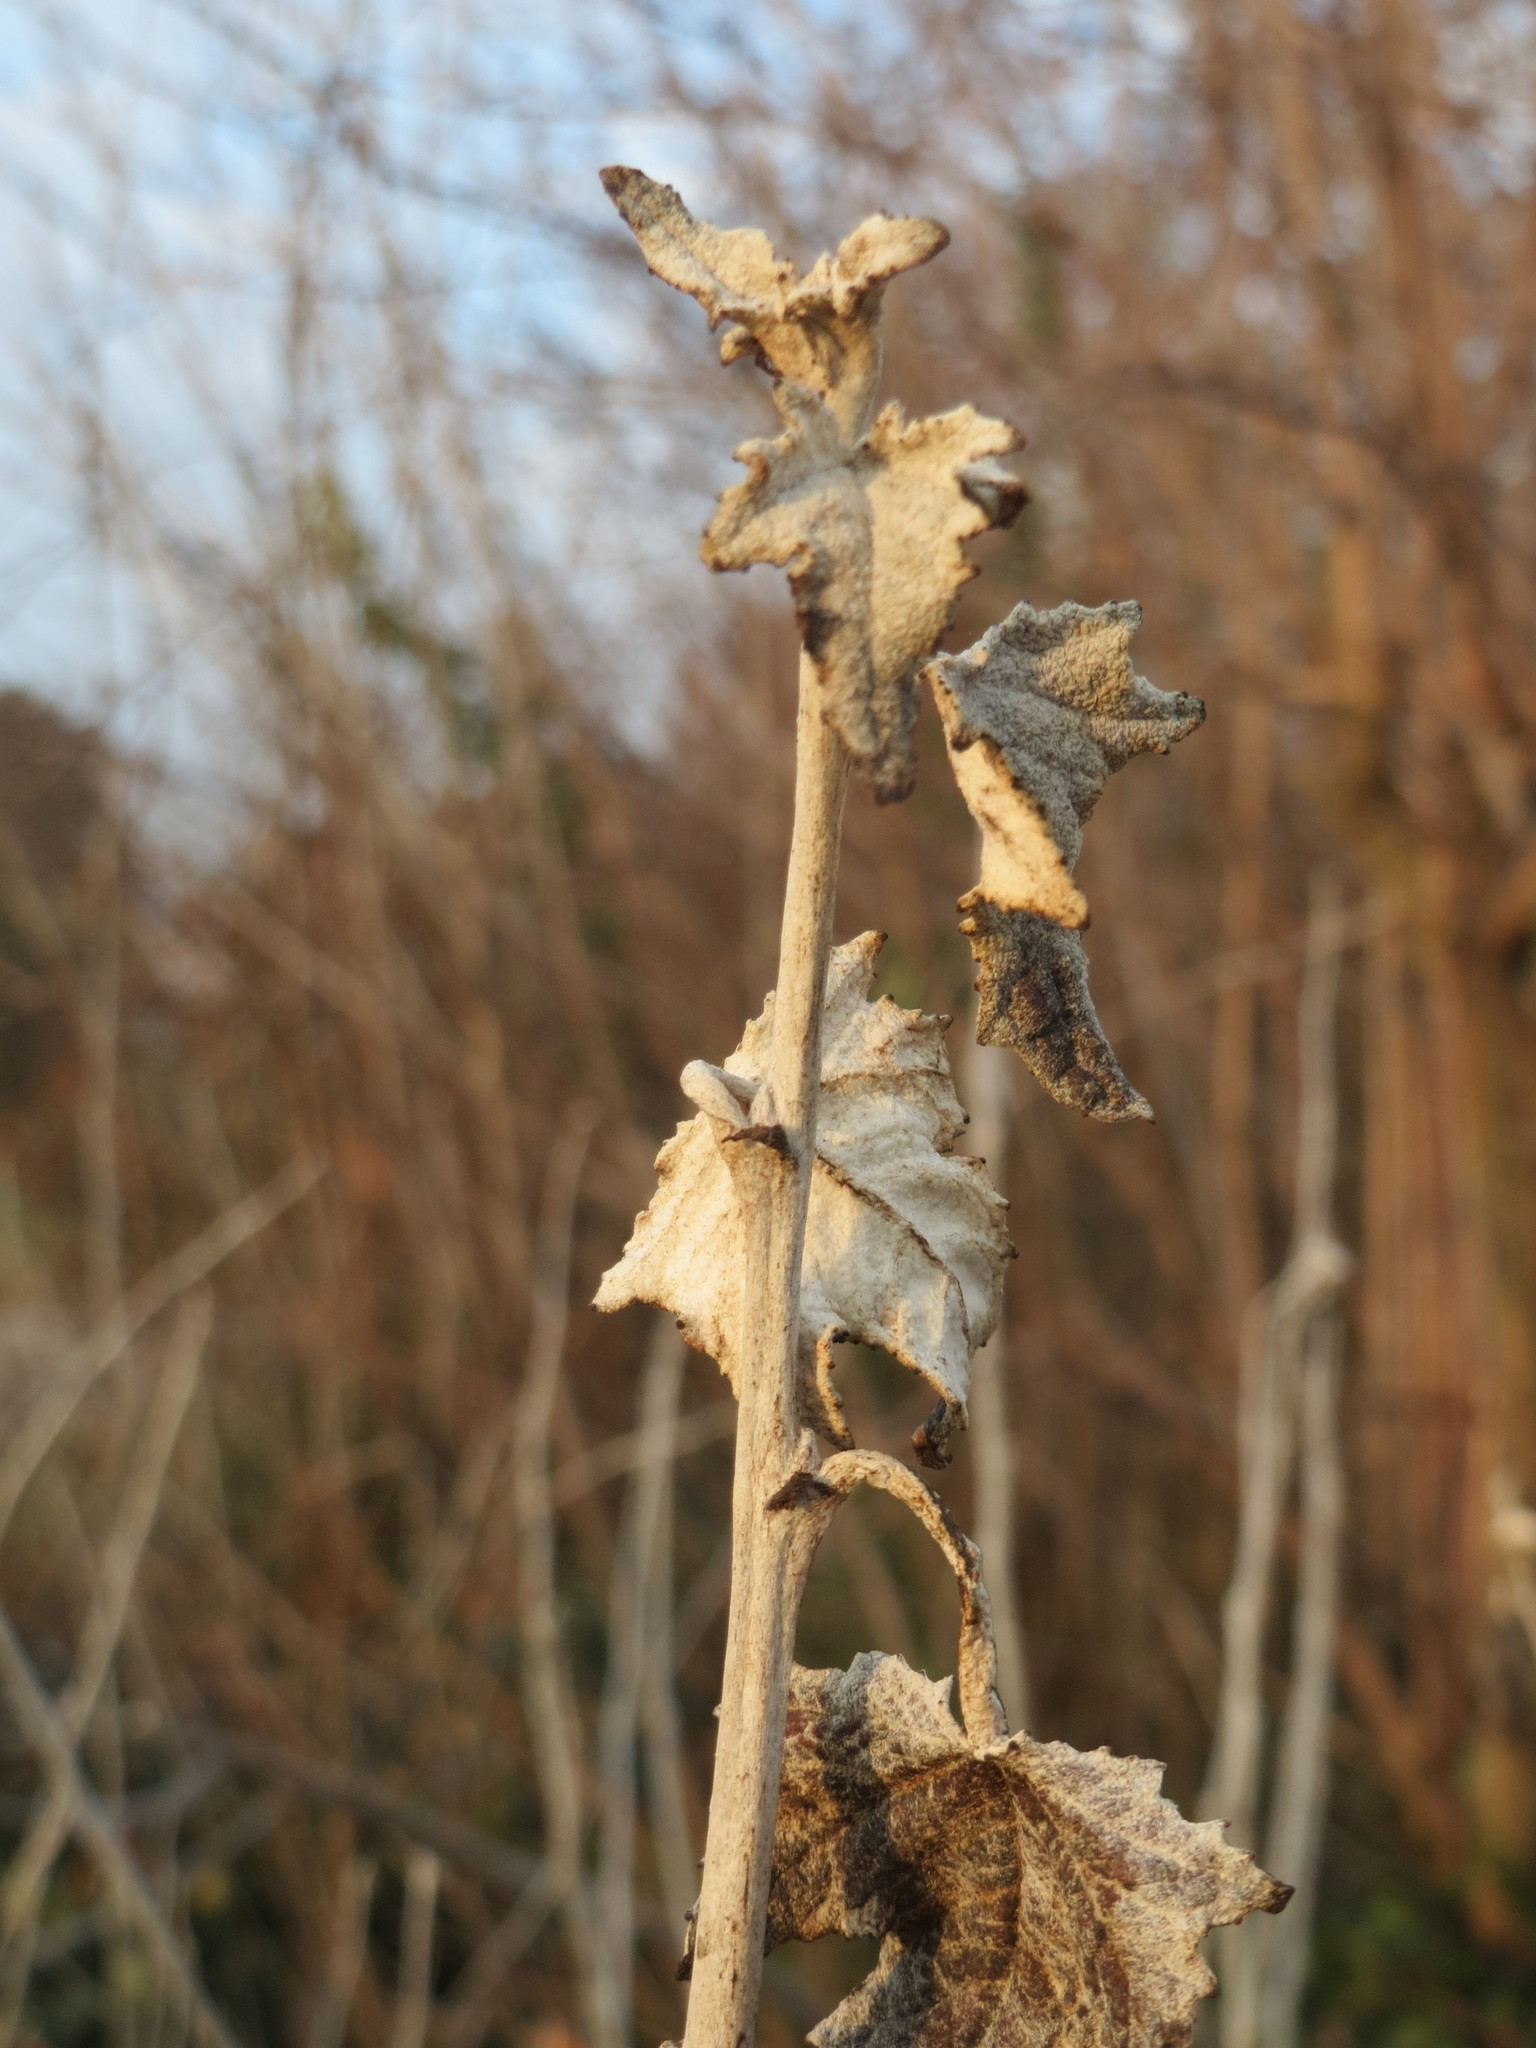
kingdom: Plantae
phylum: Tracheophyta
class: Magnoliopsida
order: Malpighiales
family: Salicaceae
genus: Populus
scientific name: Populus alba
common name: White poplar
